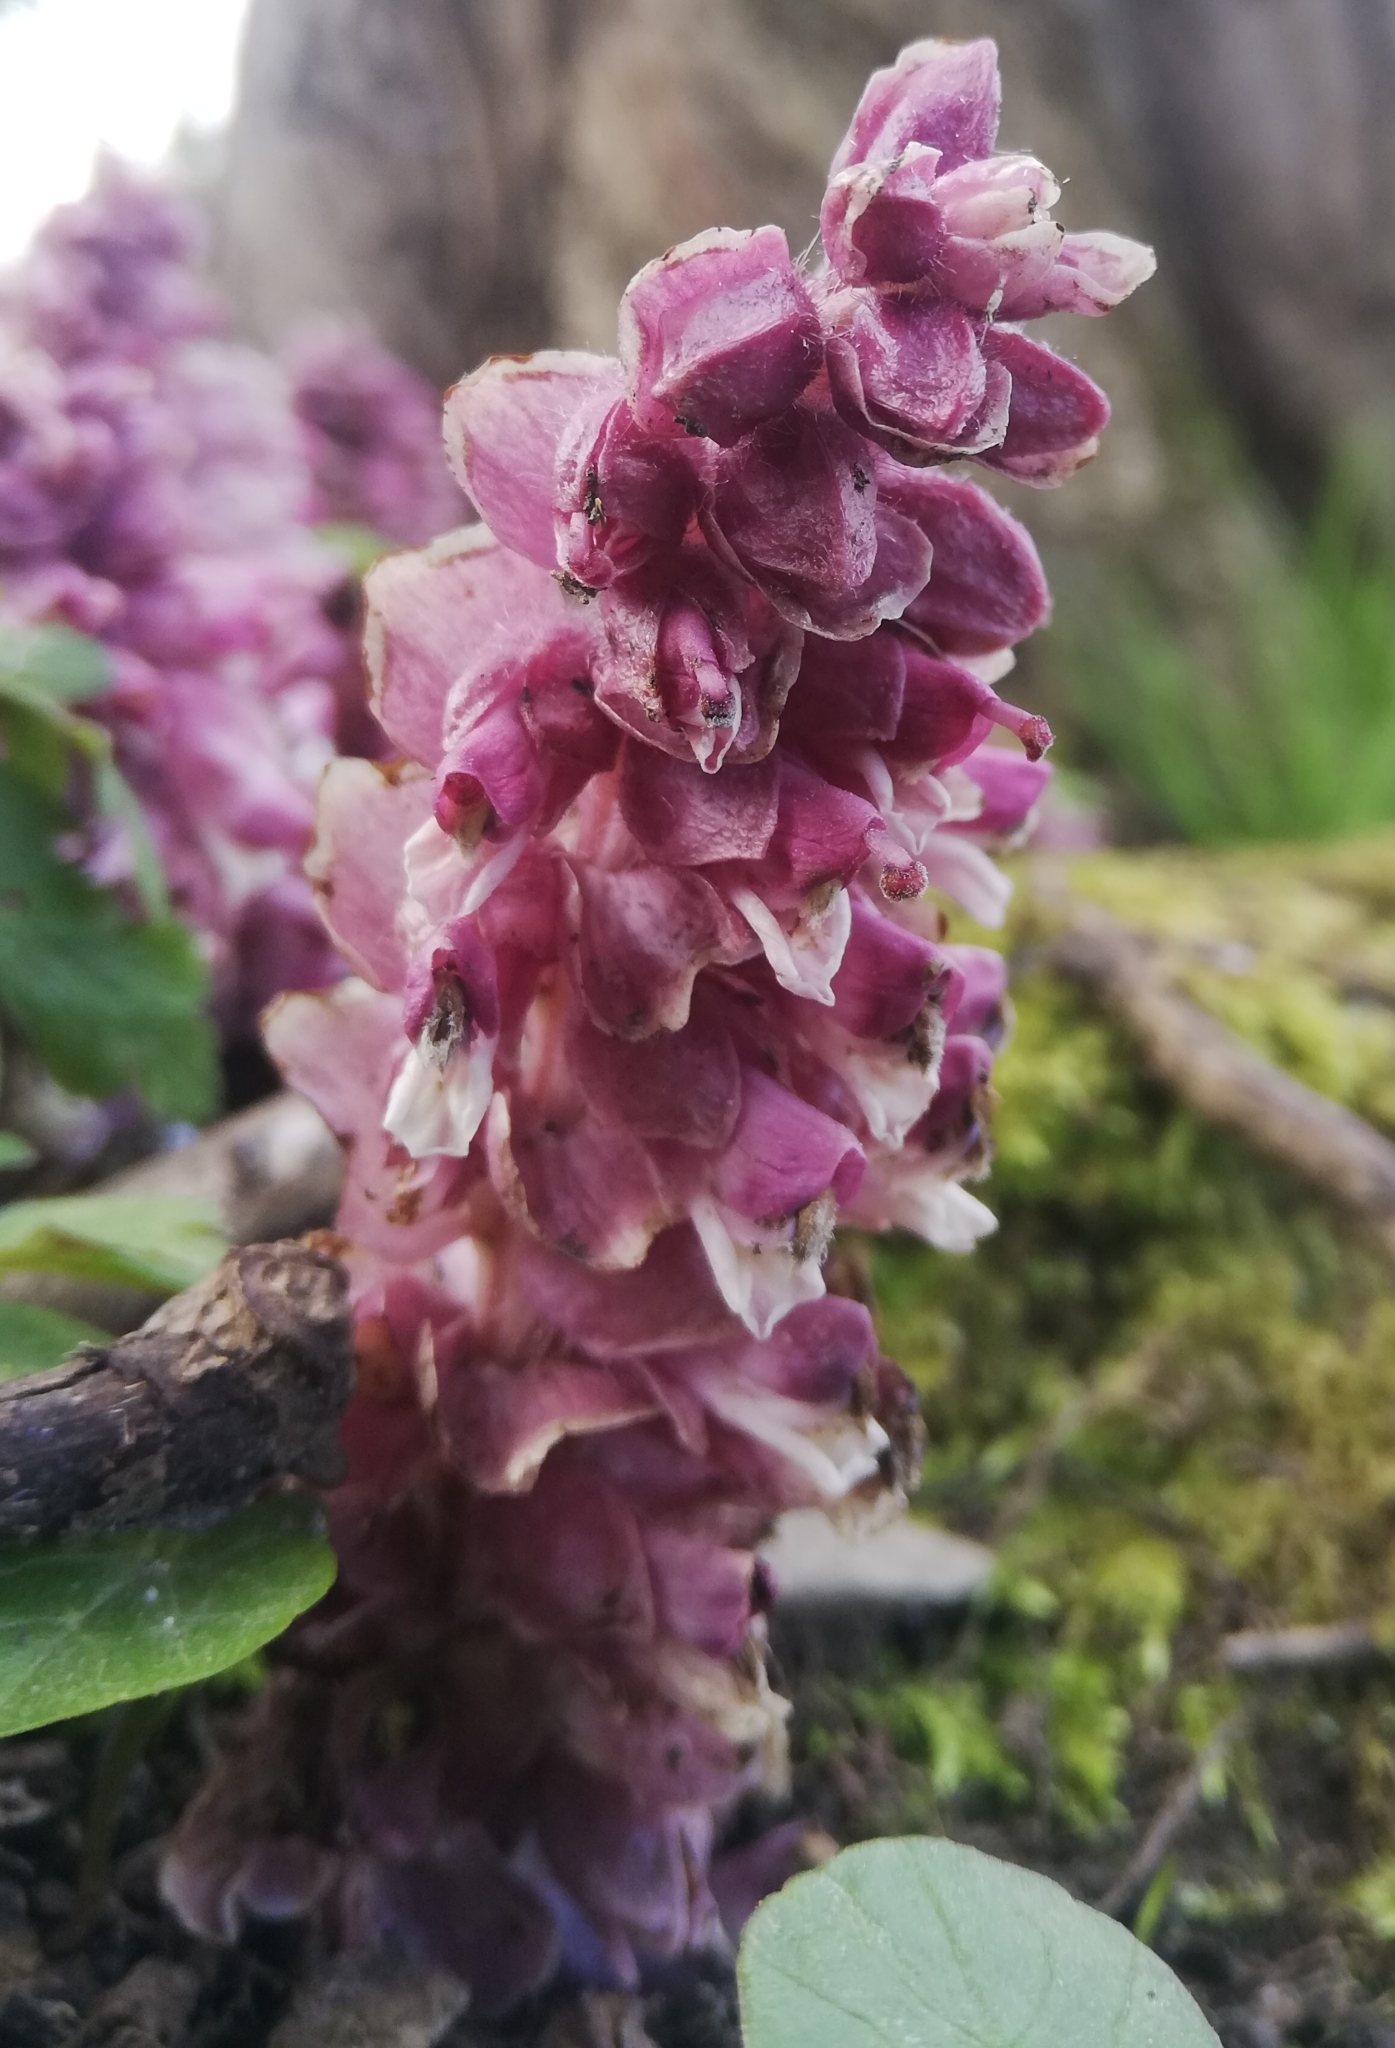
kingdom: Plantae
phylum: Tracheophyta
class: Magnoliopsida
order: Lamiales
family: Orobanchaceae
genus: Lathraea
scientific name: Lathraea squamaria
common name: Toothwort
